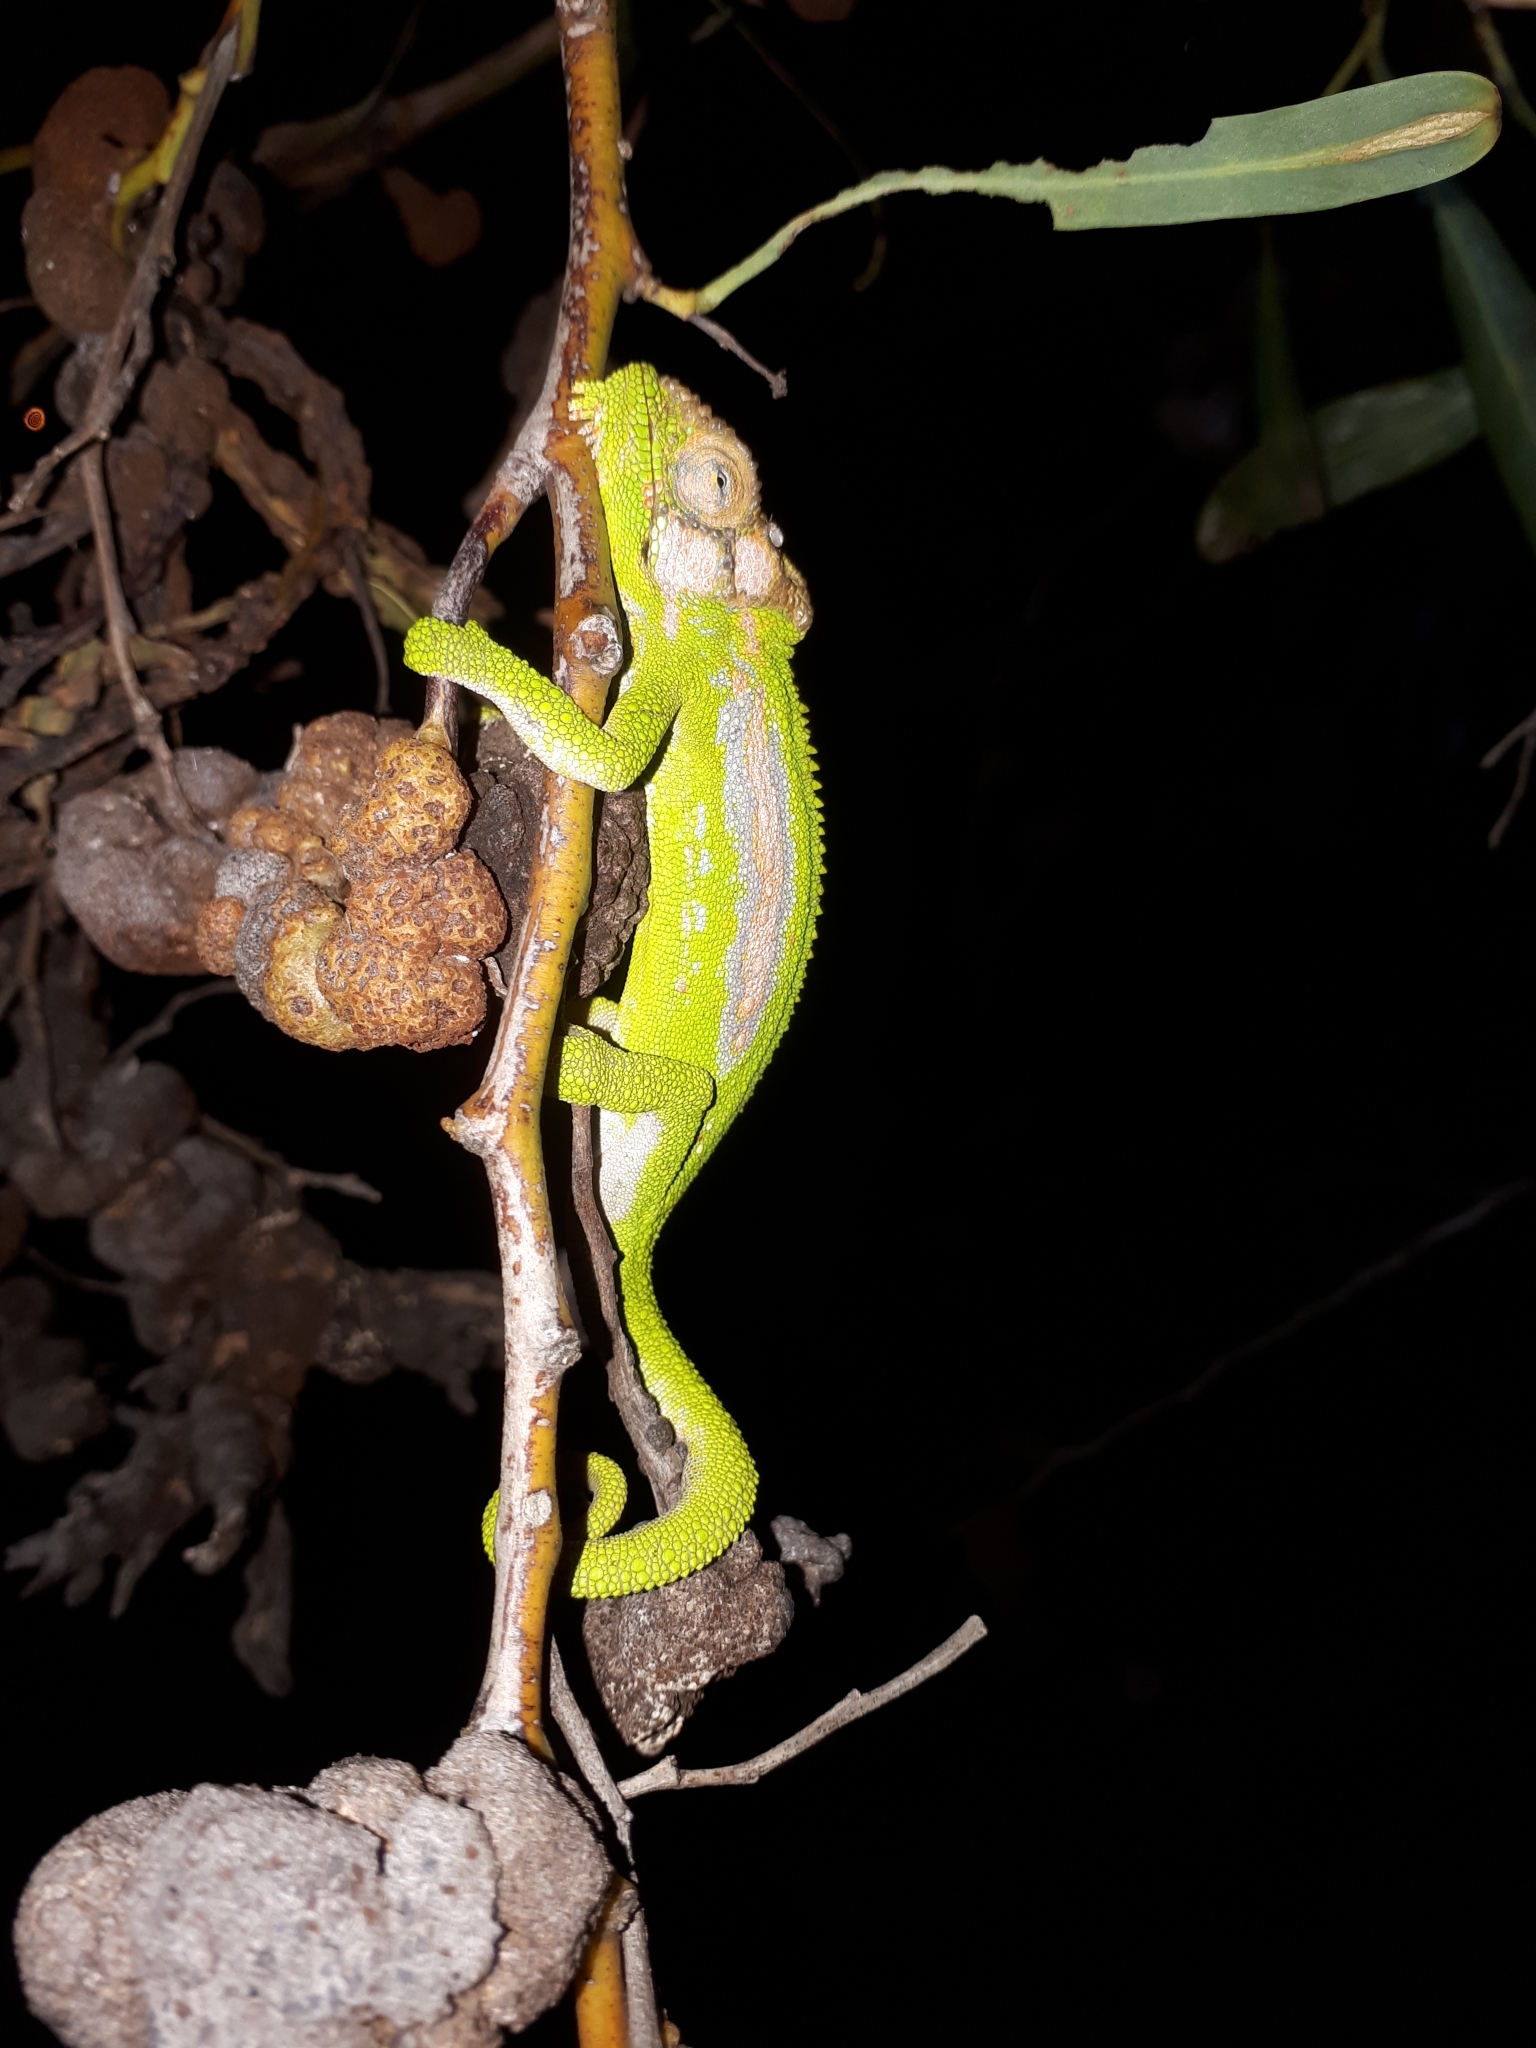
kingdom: Animalia
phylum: Chordata
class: Squamata
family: Chamaeleonidae
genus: Bradypodion
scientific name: Bradypodion pumilum
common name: Cape dwarf chameleon
